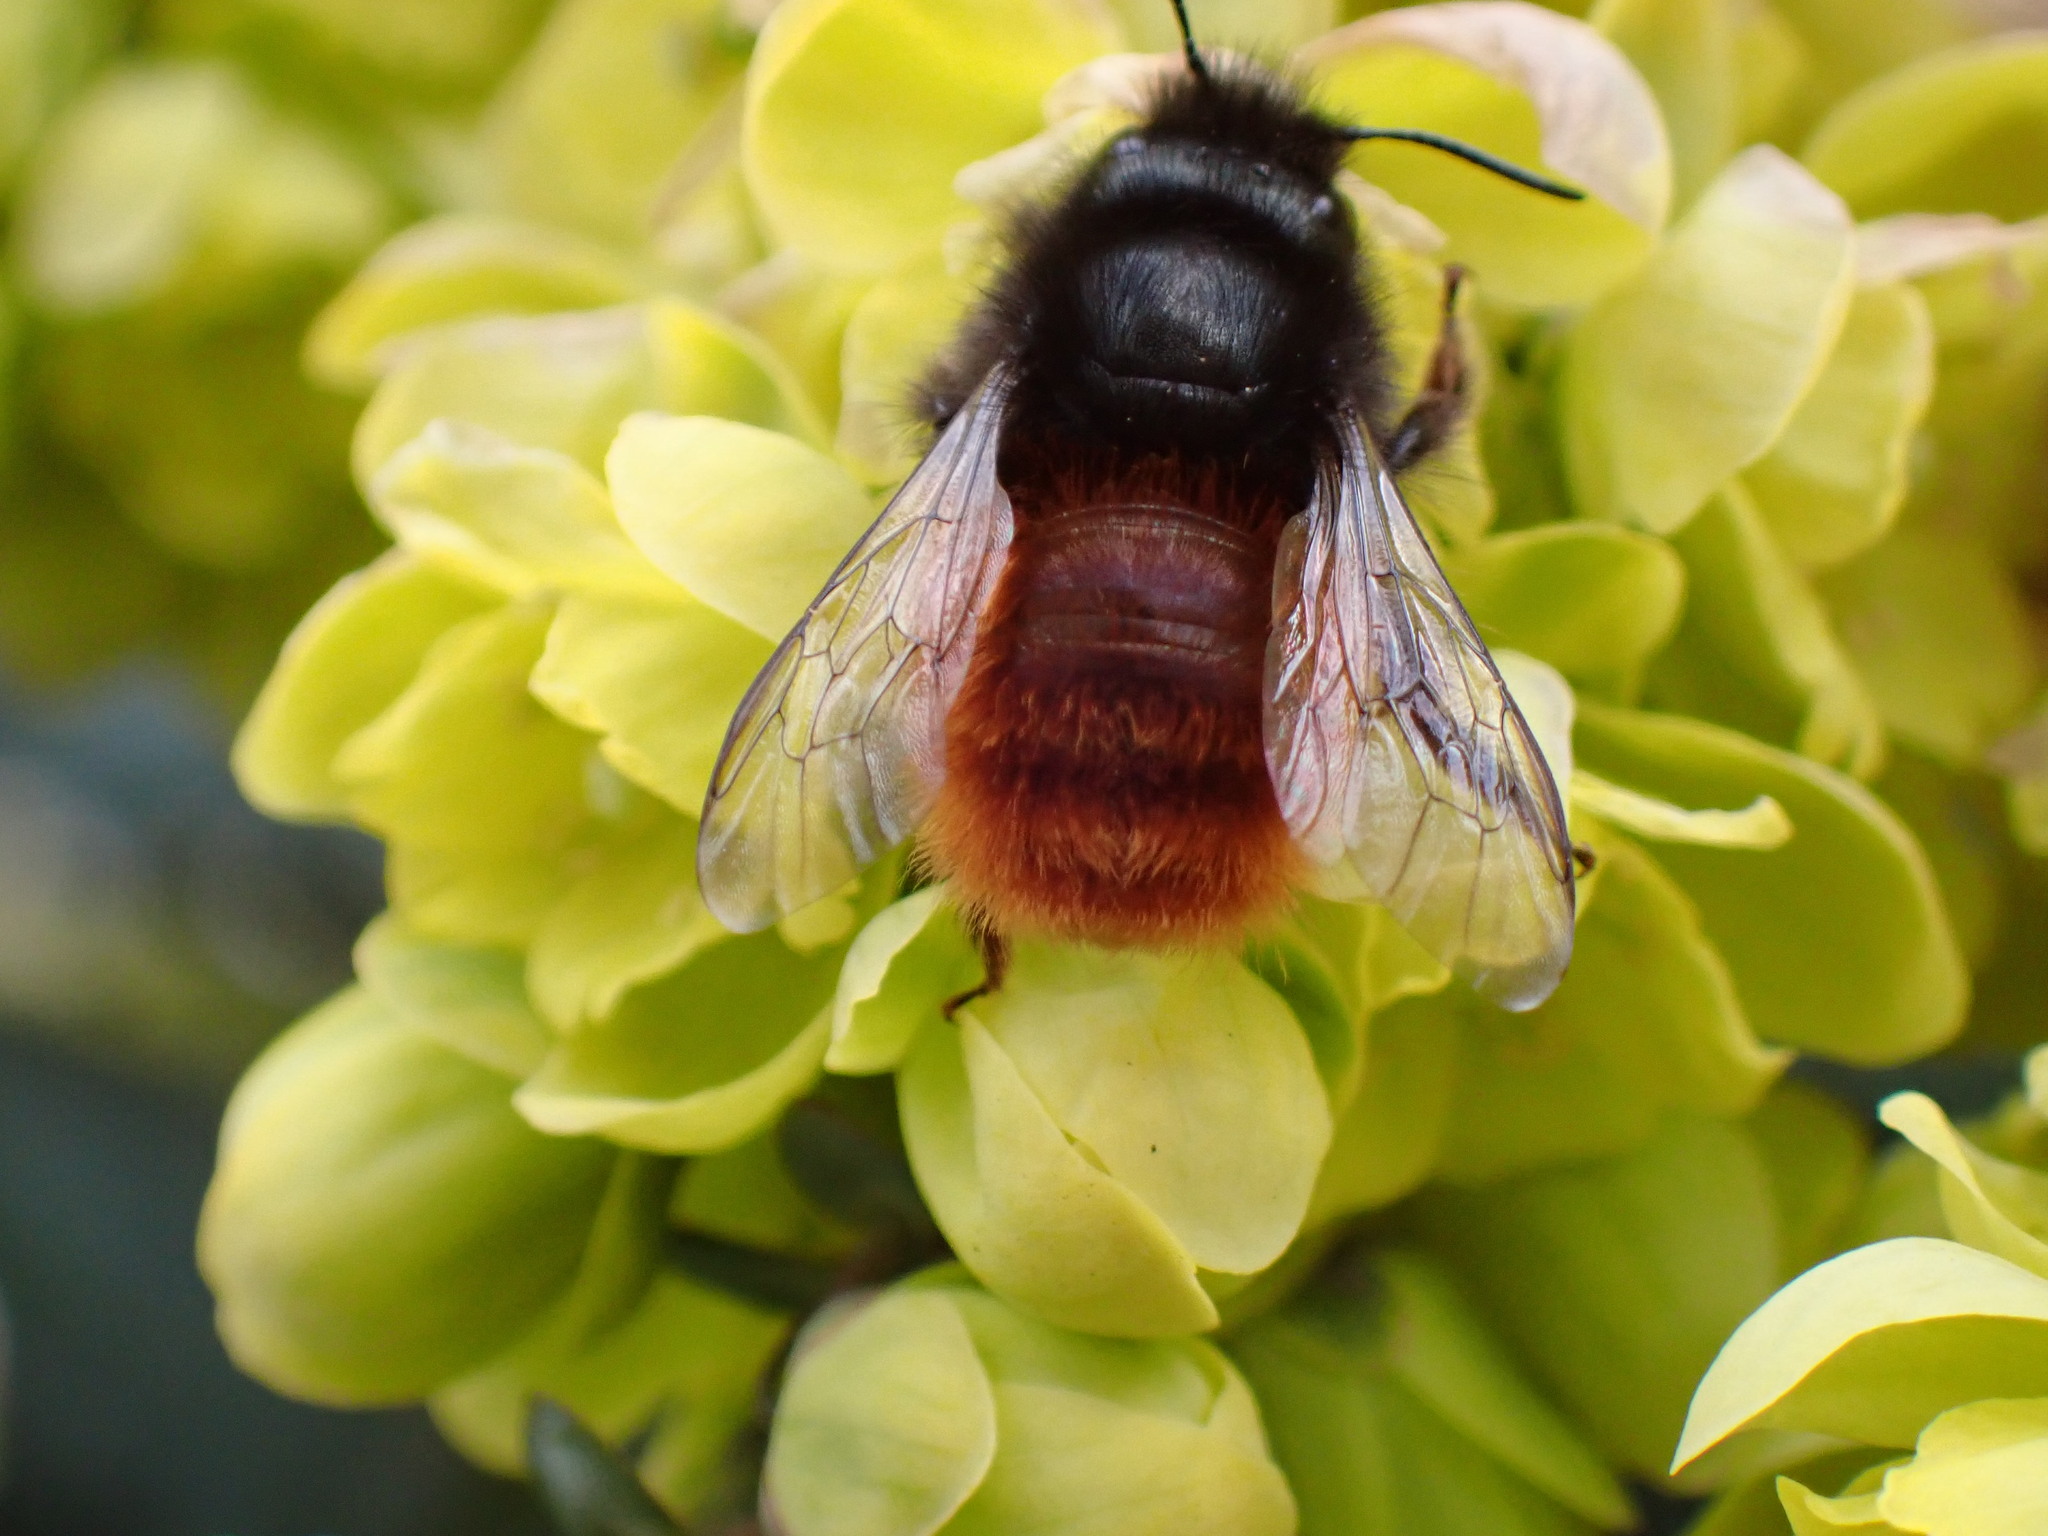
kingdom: Animalia
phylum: Arthropoda
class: Insecta
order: Hymenoptera
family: Megachilidae
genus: Osmia
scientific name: Osmia cornuta
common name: Mason bee
